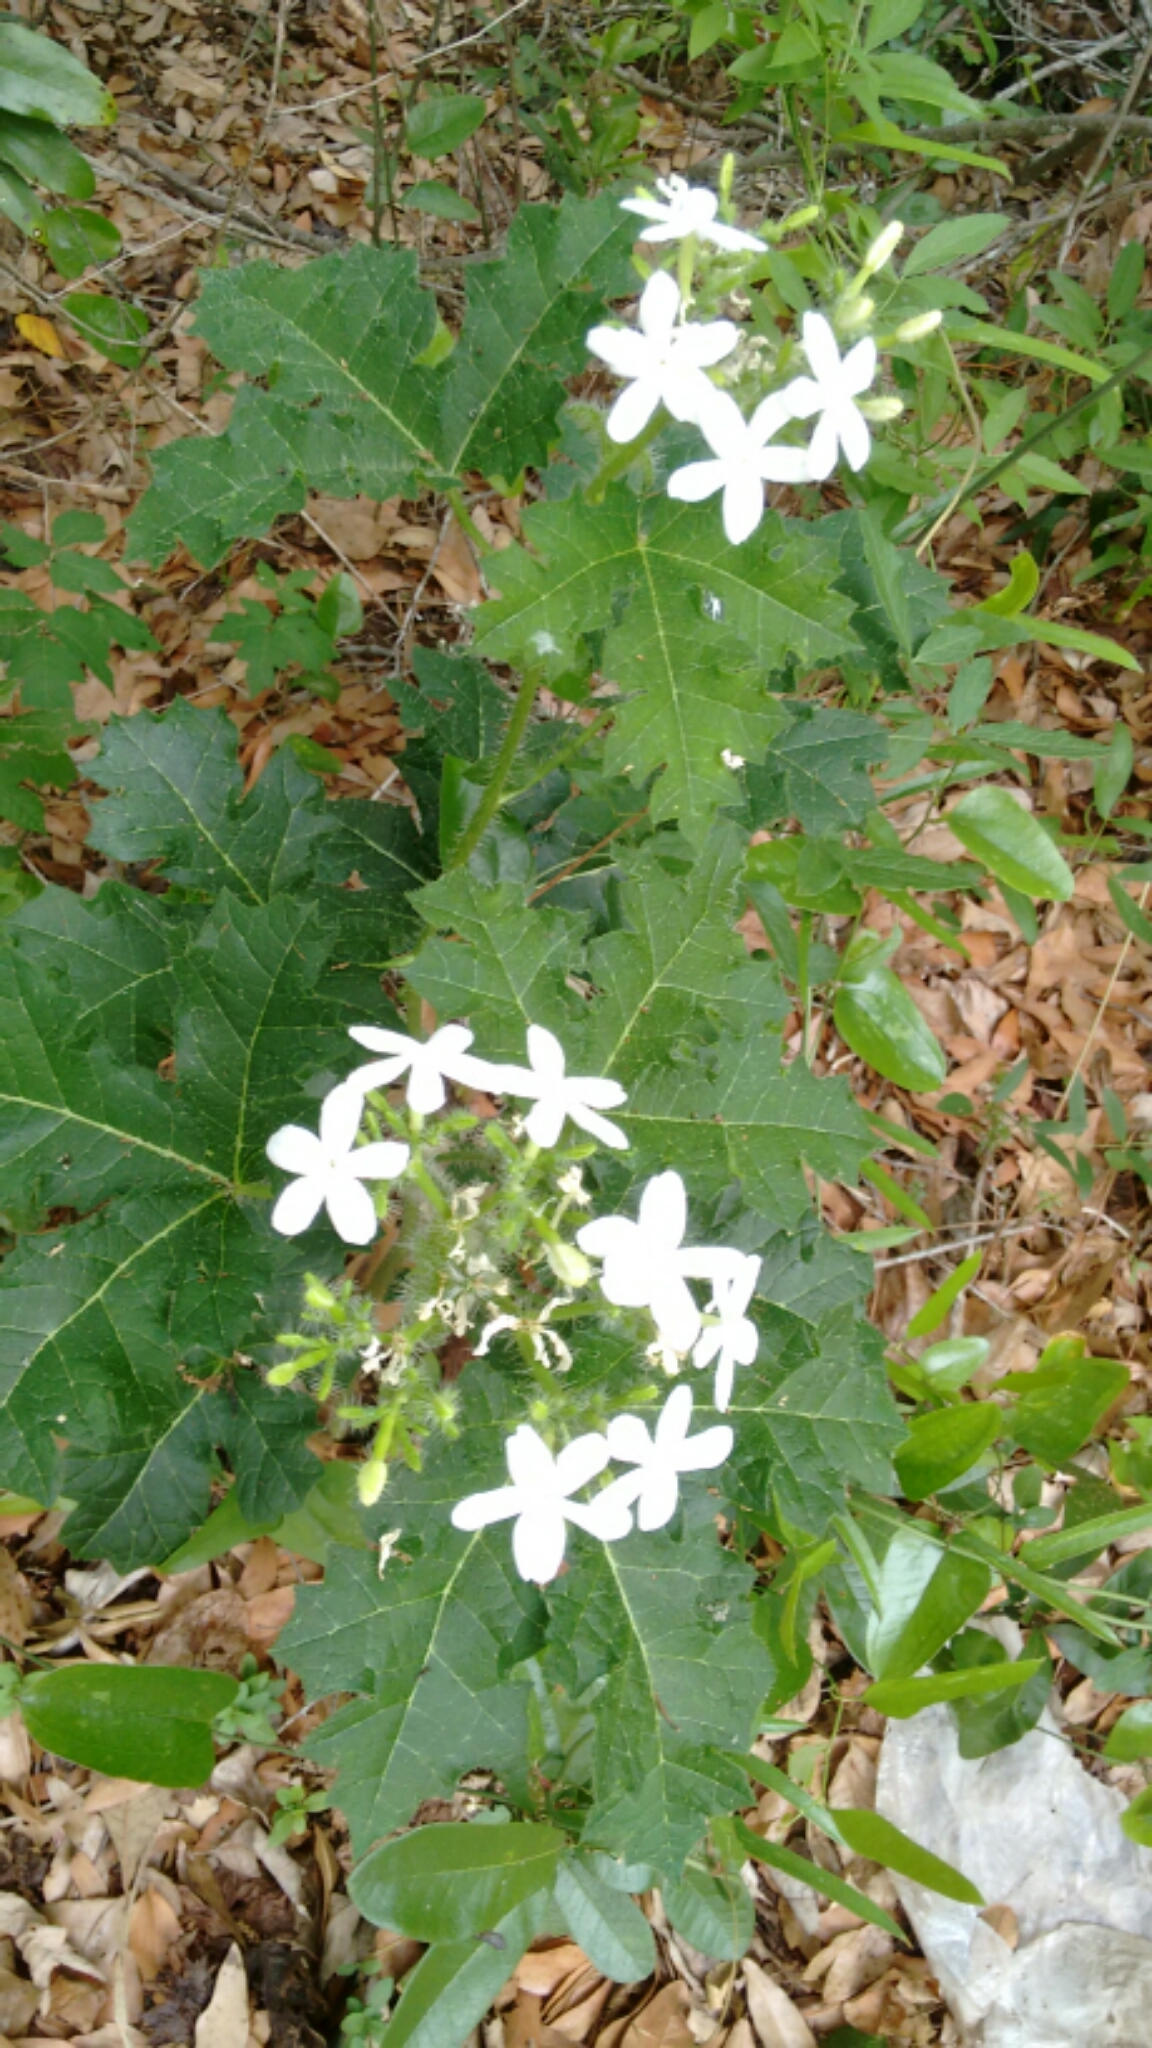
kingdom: Plantae
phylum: Tracheophyta
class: Magnoliopsida
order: Malpighiales
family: Euphorbiaceae
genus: Cnidoscolus
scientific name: Cnidoscolus stimulosus
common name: Bull-nettle
